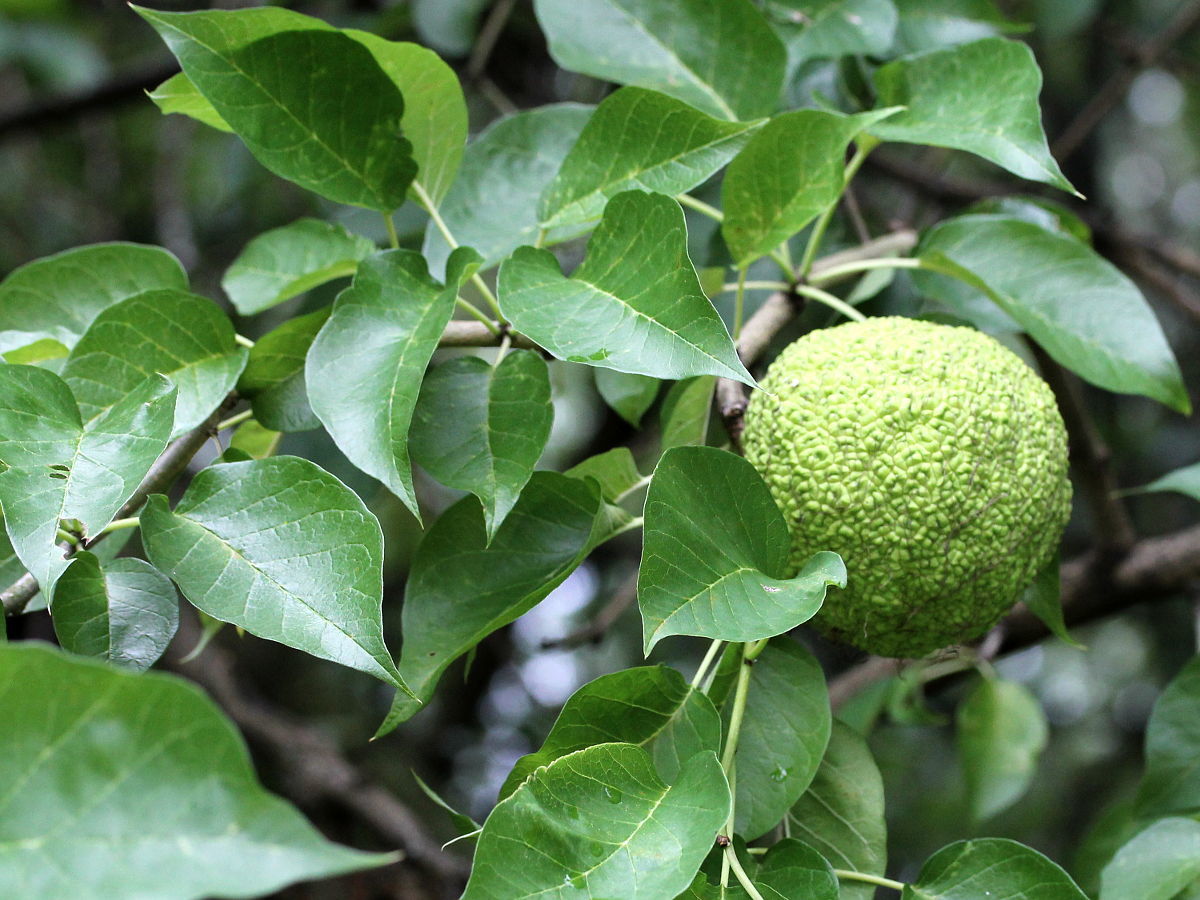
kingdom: Plantae
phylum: Tracheophyta
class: Magnoliopsida
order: Rosales
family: Moraceae
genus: Maclura
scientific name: Maclura pomifera
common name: Osage-orange
